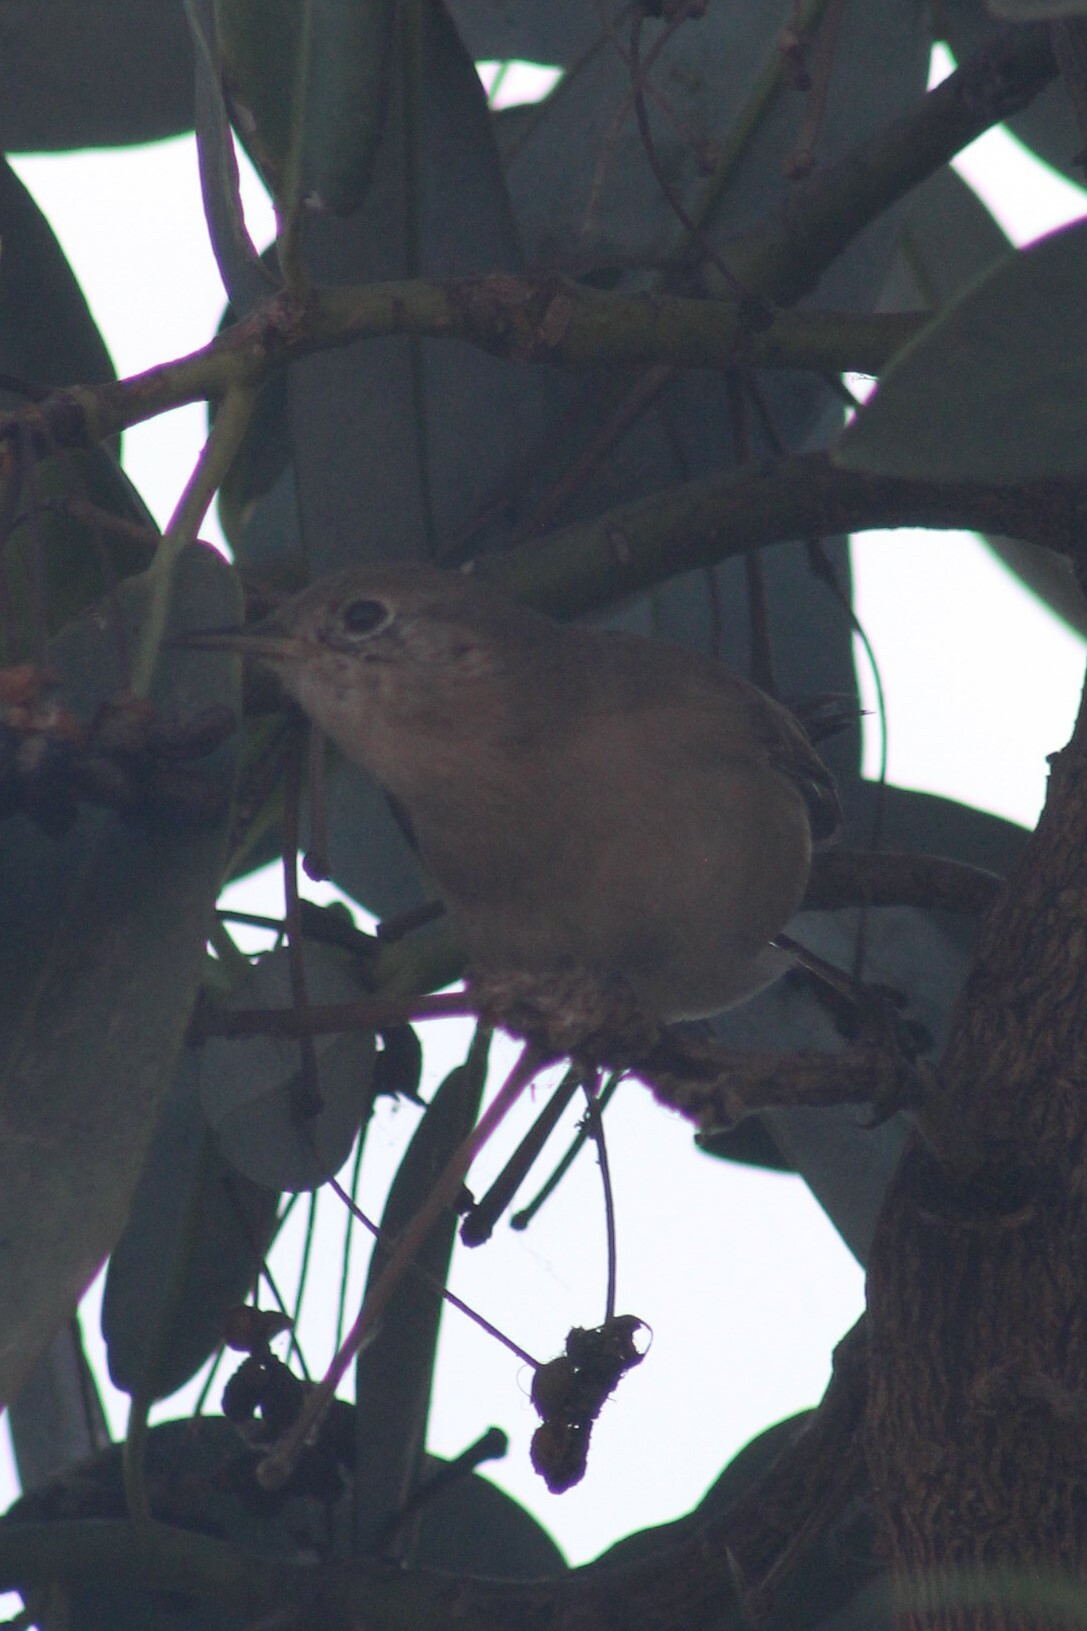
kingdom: Animalia
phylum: Chordata
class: Aves
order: Passeriformes
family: Troglodytidae
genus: Troglodytes
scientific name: Troglodytes aedon
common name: House wren
